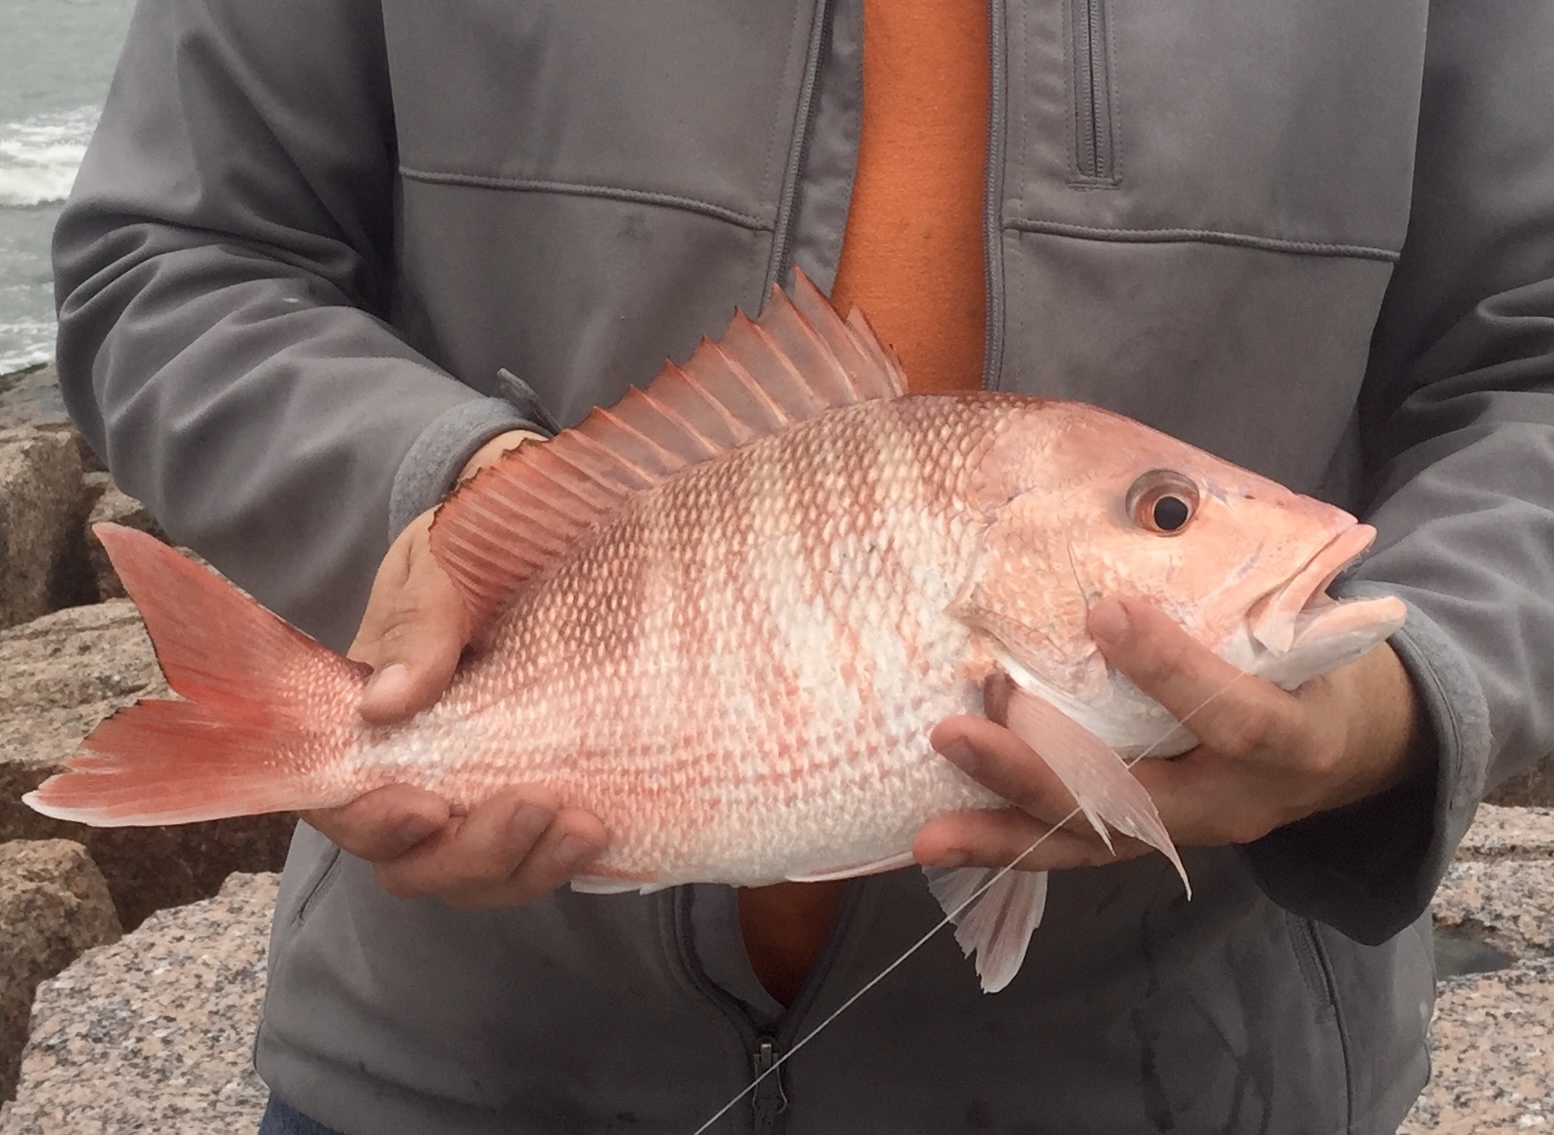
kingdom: Animalia
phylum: Chordata
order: Perciformes
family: Lutjanidae
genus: Lutjanus
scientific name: Lutjanus campechanus
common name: Red snapper
